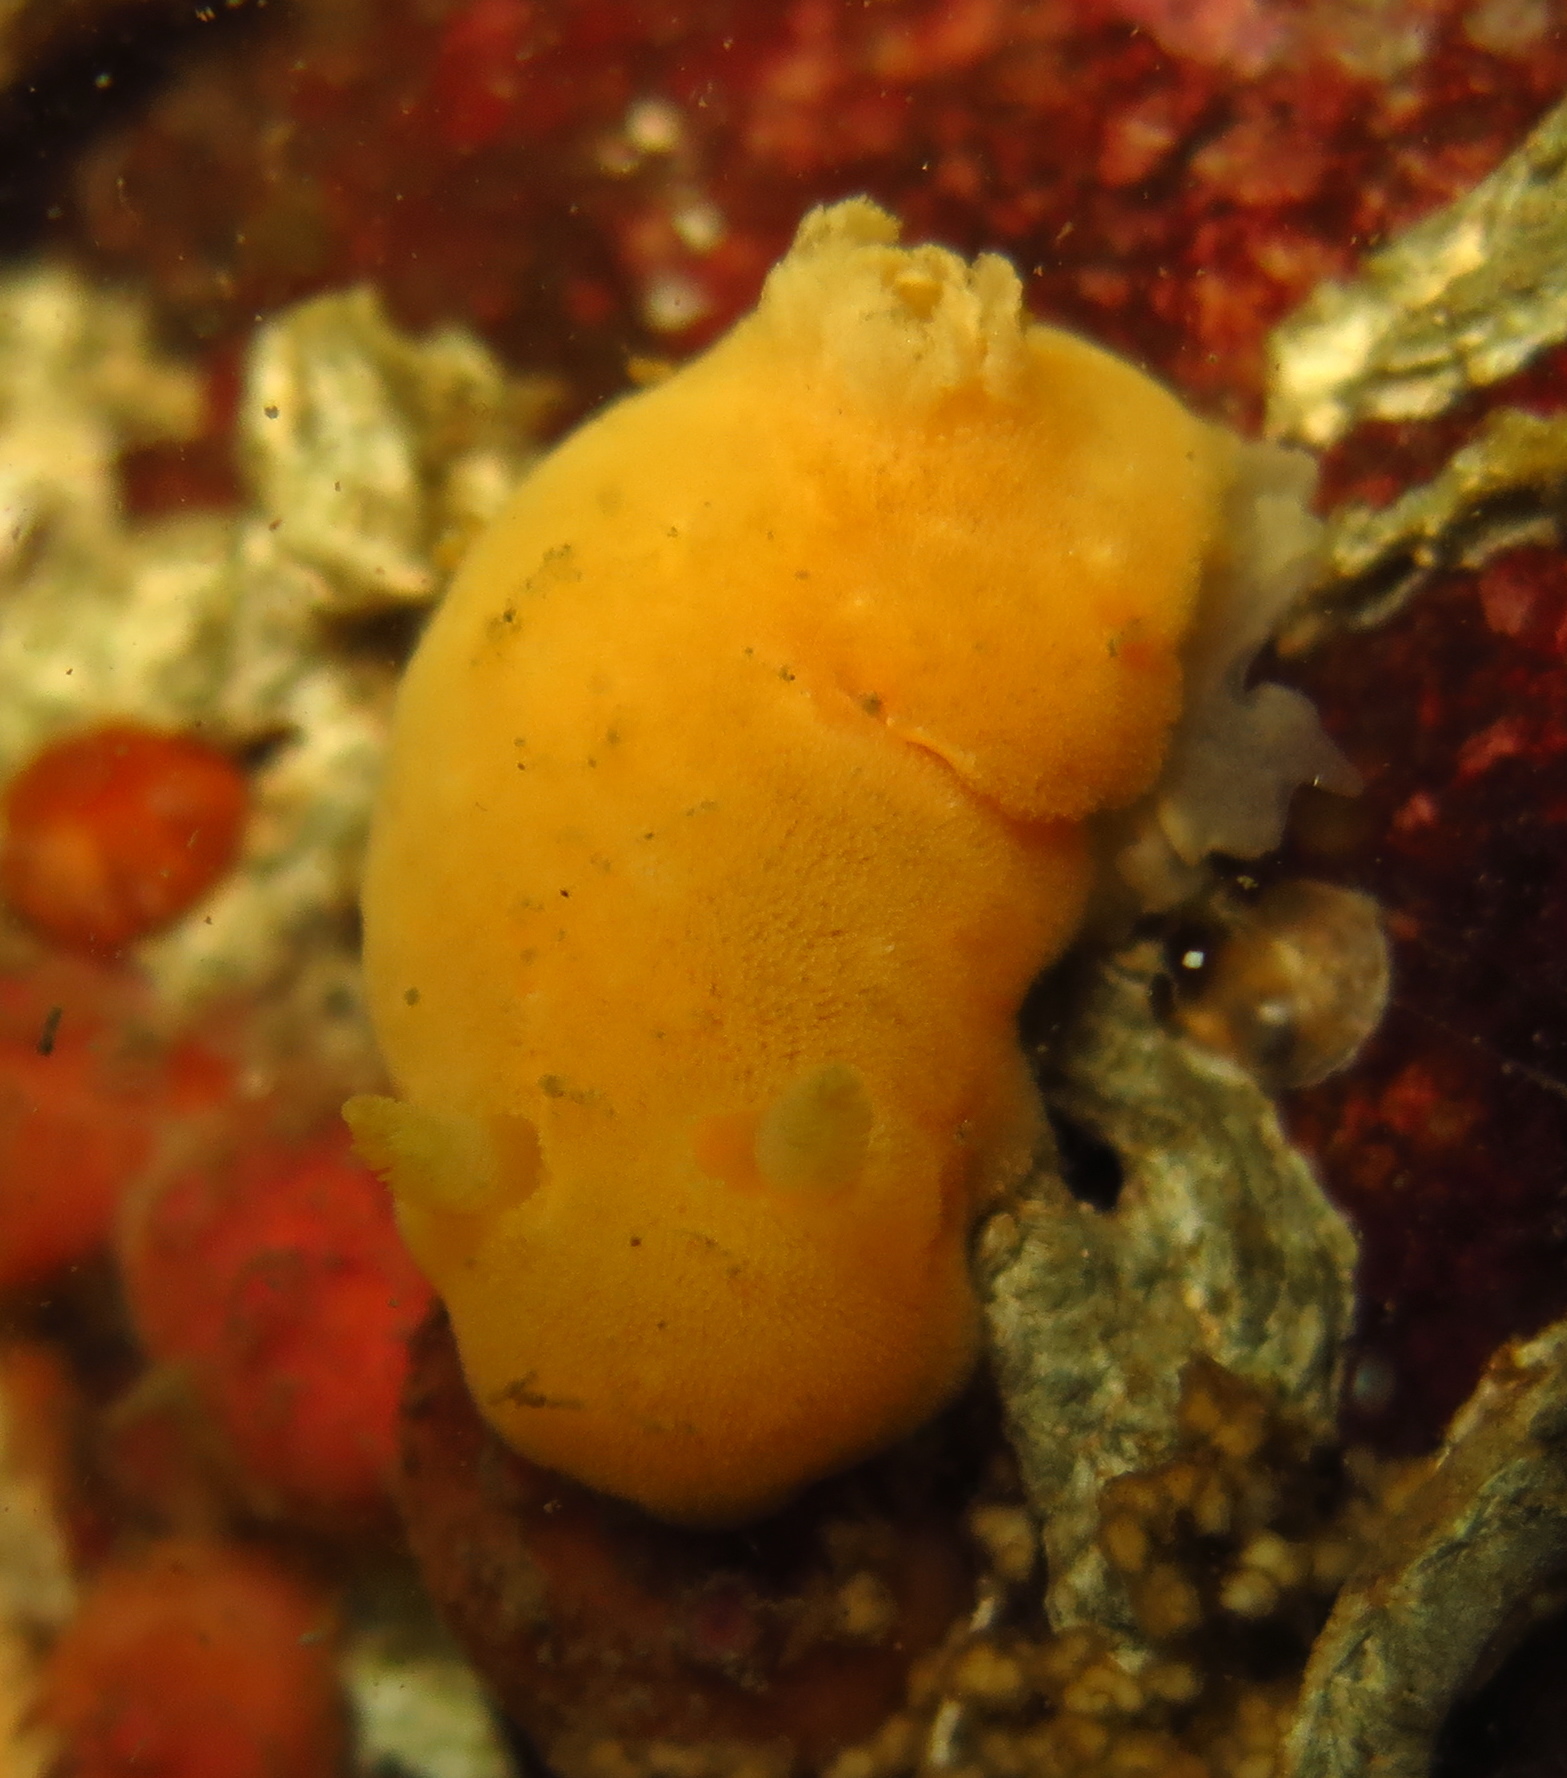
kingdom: Animalia
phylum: Mollusca
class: Gastropoda
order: Nudibranchia
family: Discodorididae
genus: Jorunna
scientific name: Jorunna tomentosa
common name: Grey sea slug
